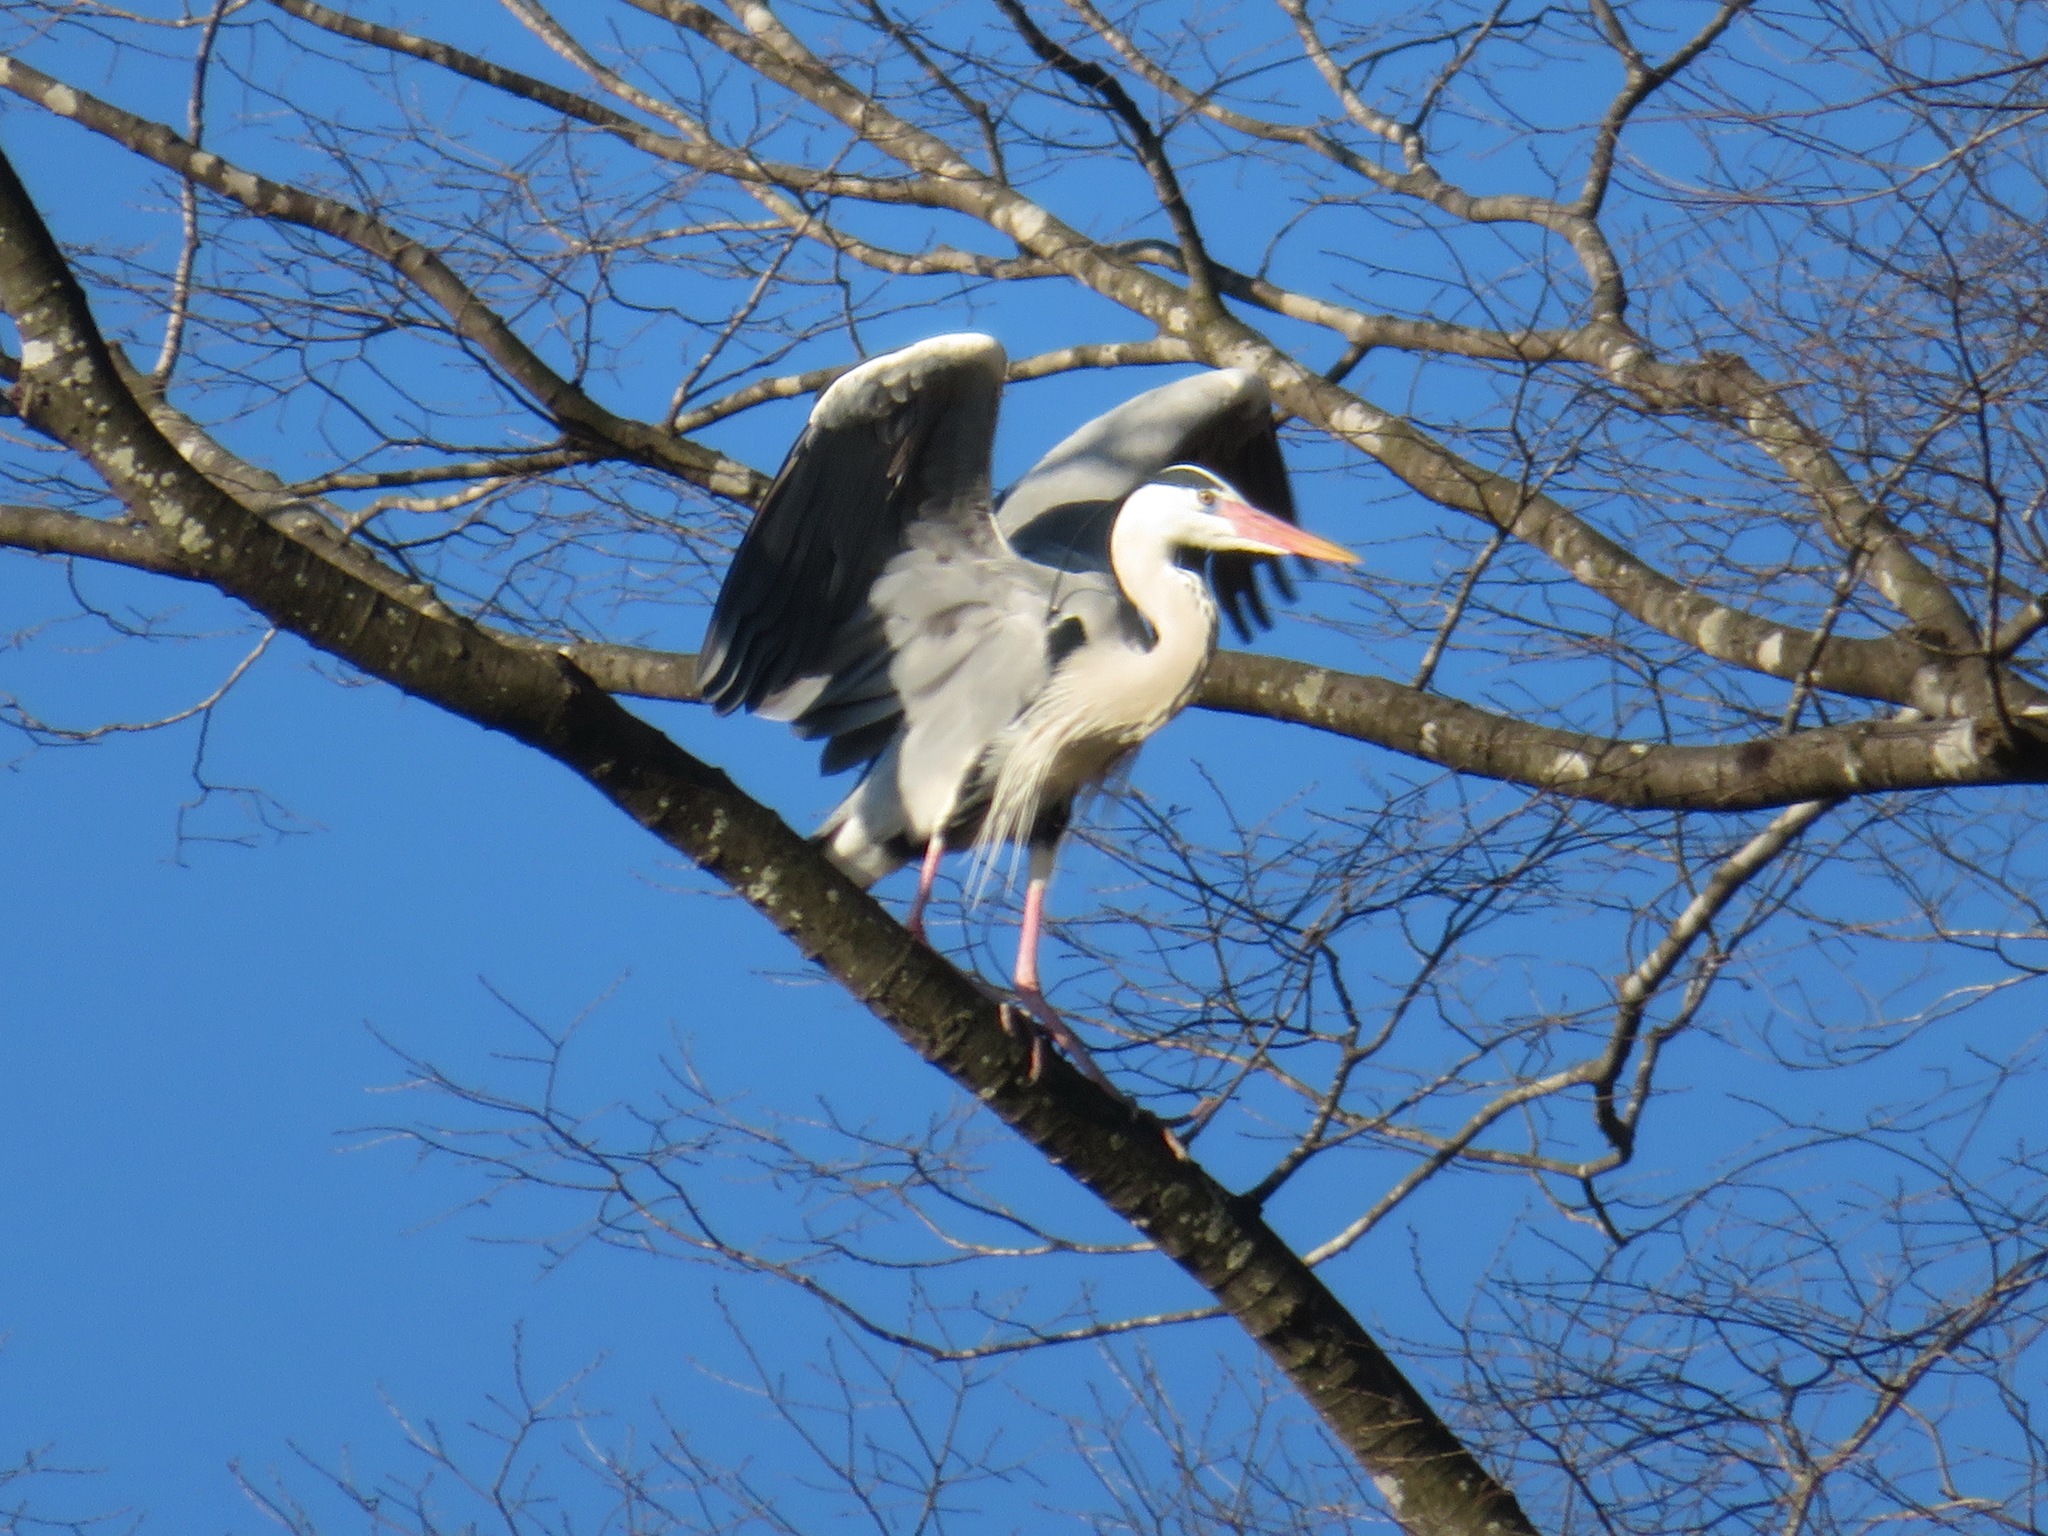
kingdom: Animalia
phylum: Chordata
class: Aves
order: Pelecaniformes
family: Ardeidae
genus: Ardea
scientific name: Ardea cinerea
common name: Grey heron
